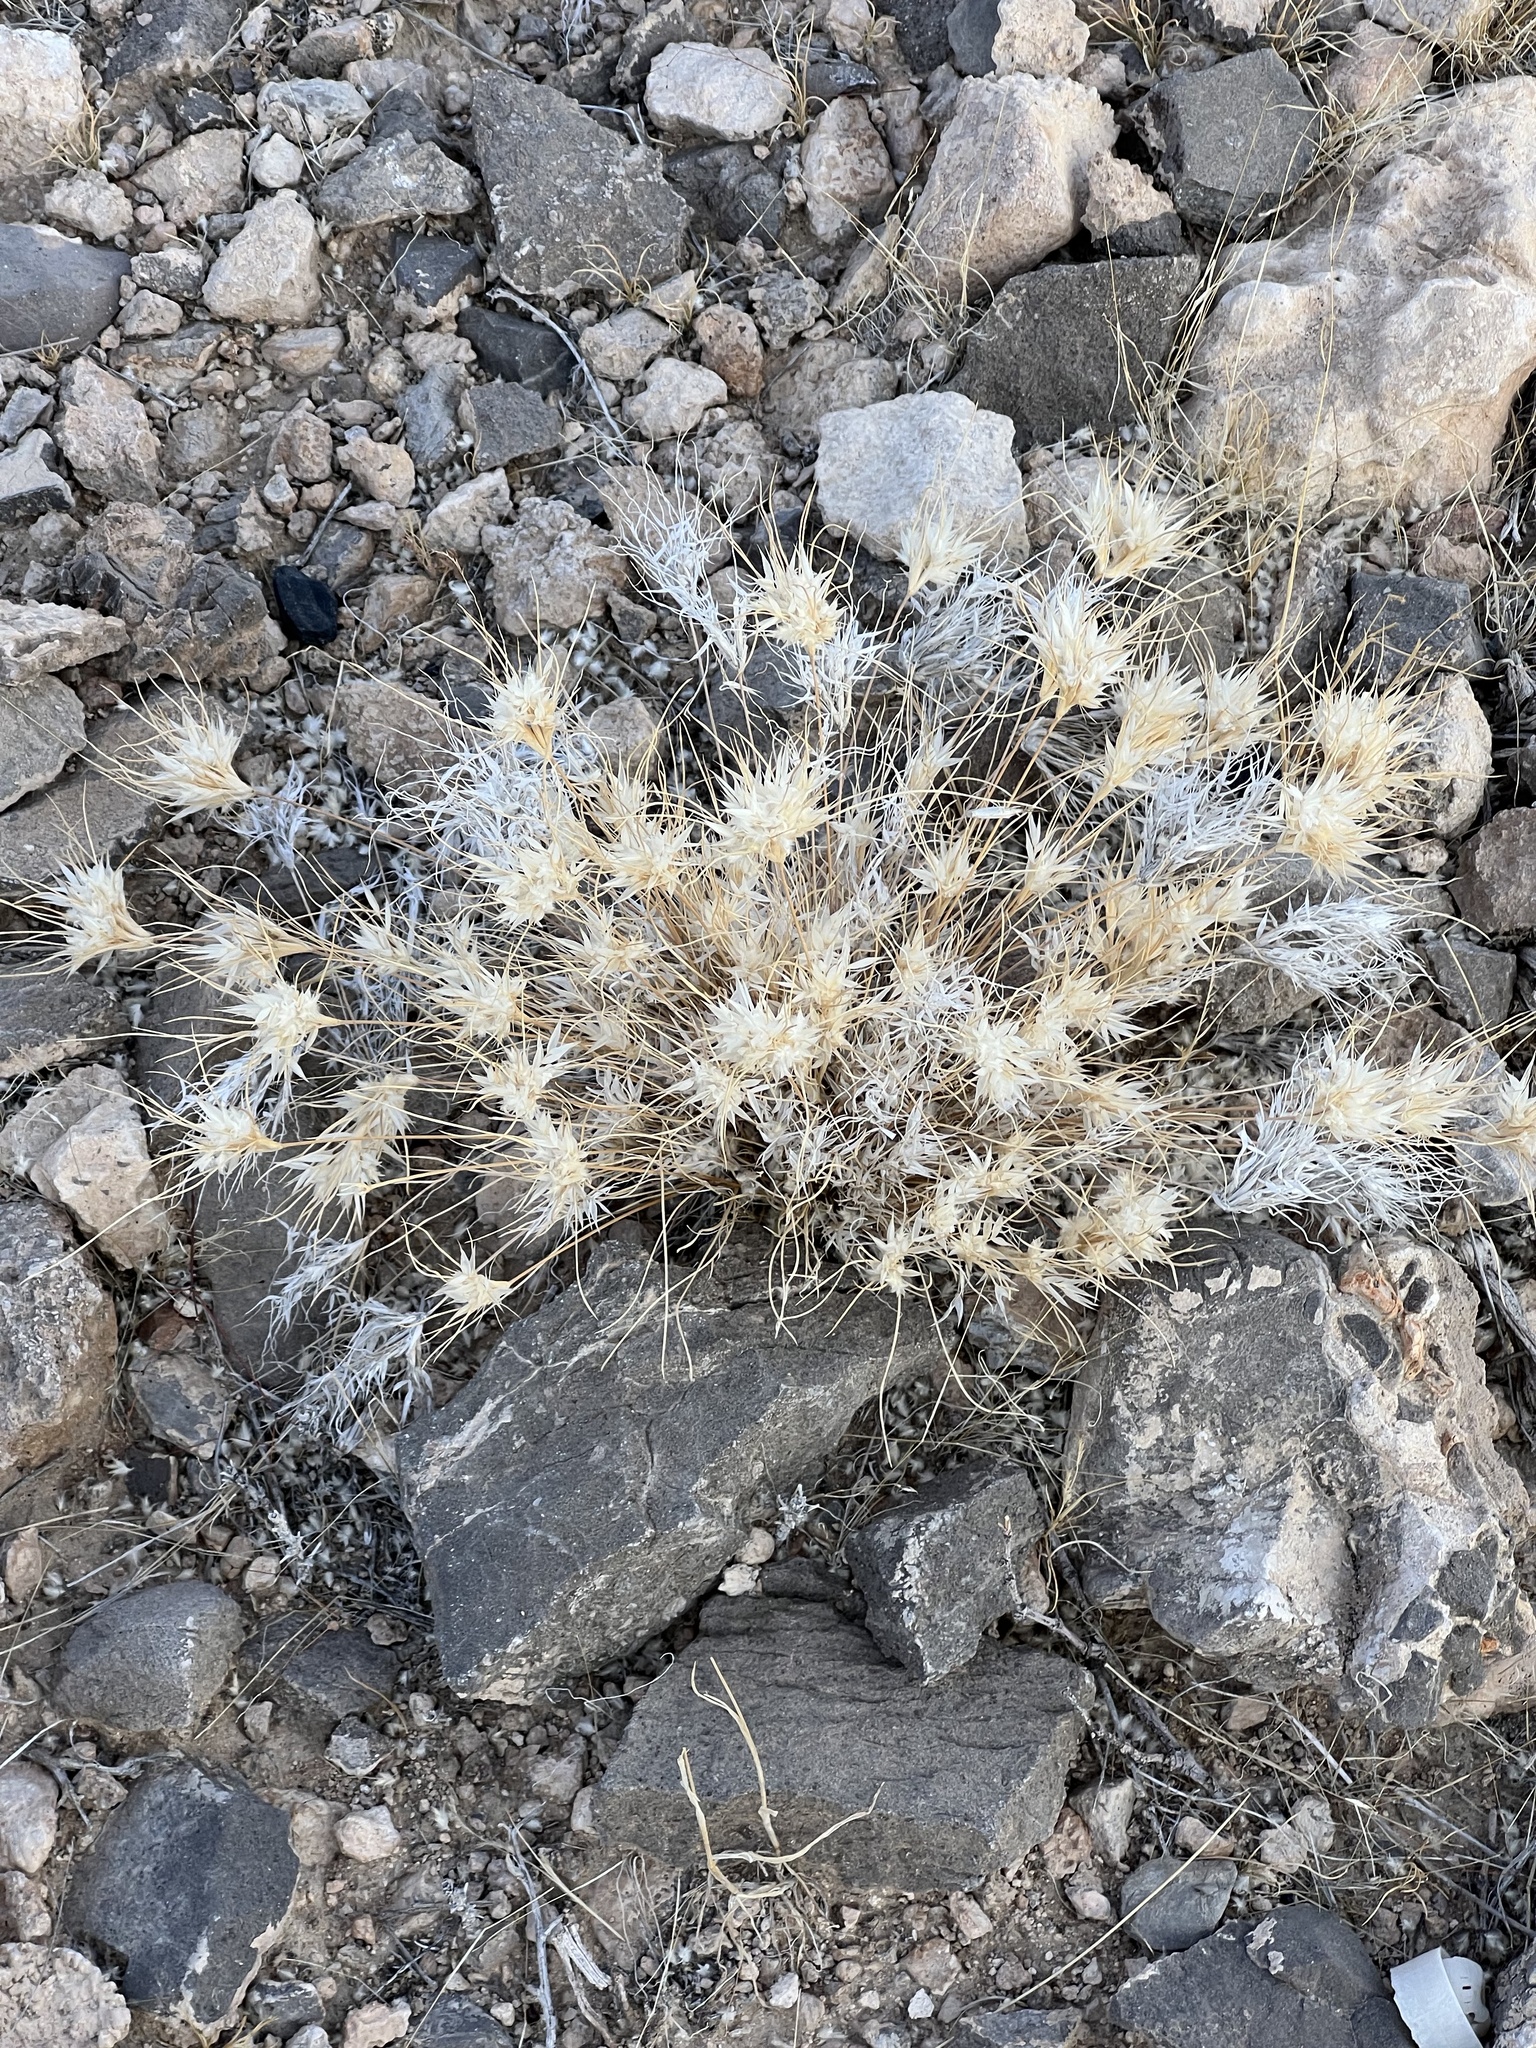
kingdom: Plantae
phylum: Tracheophyta
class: Liliopsida
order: Poales
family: Poaceae
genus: Dasyochloa
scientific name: Dasyochloa pulchella
